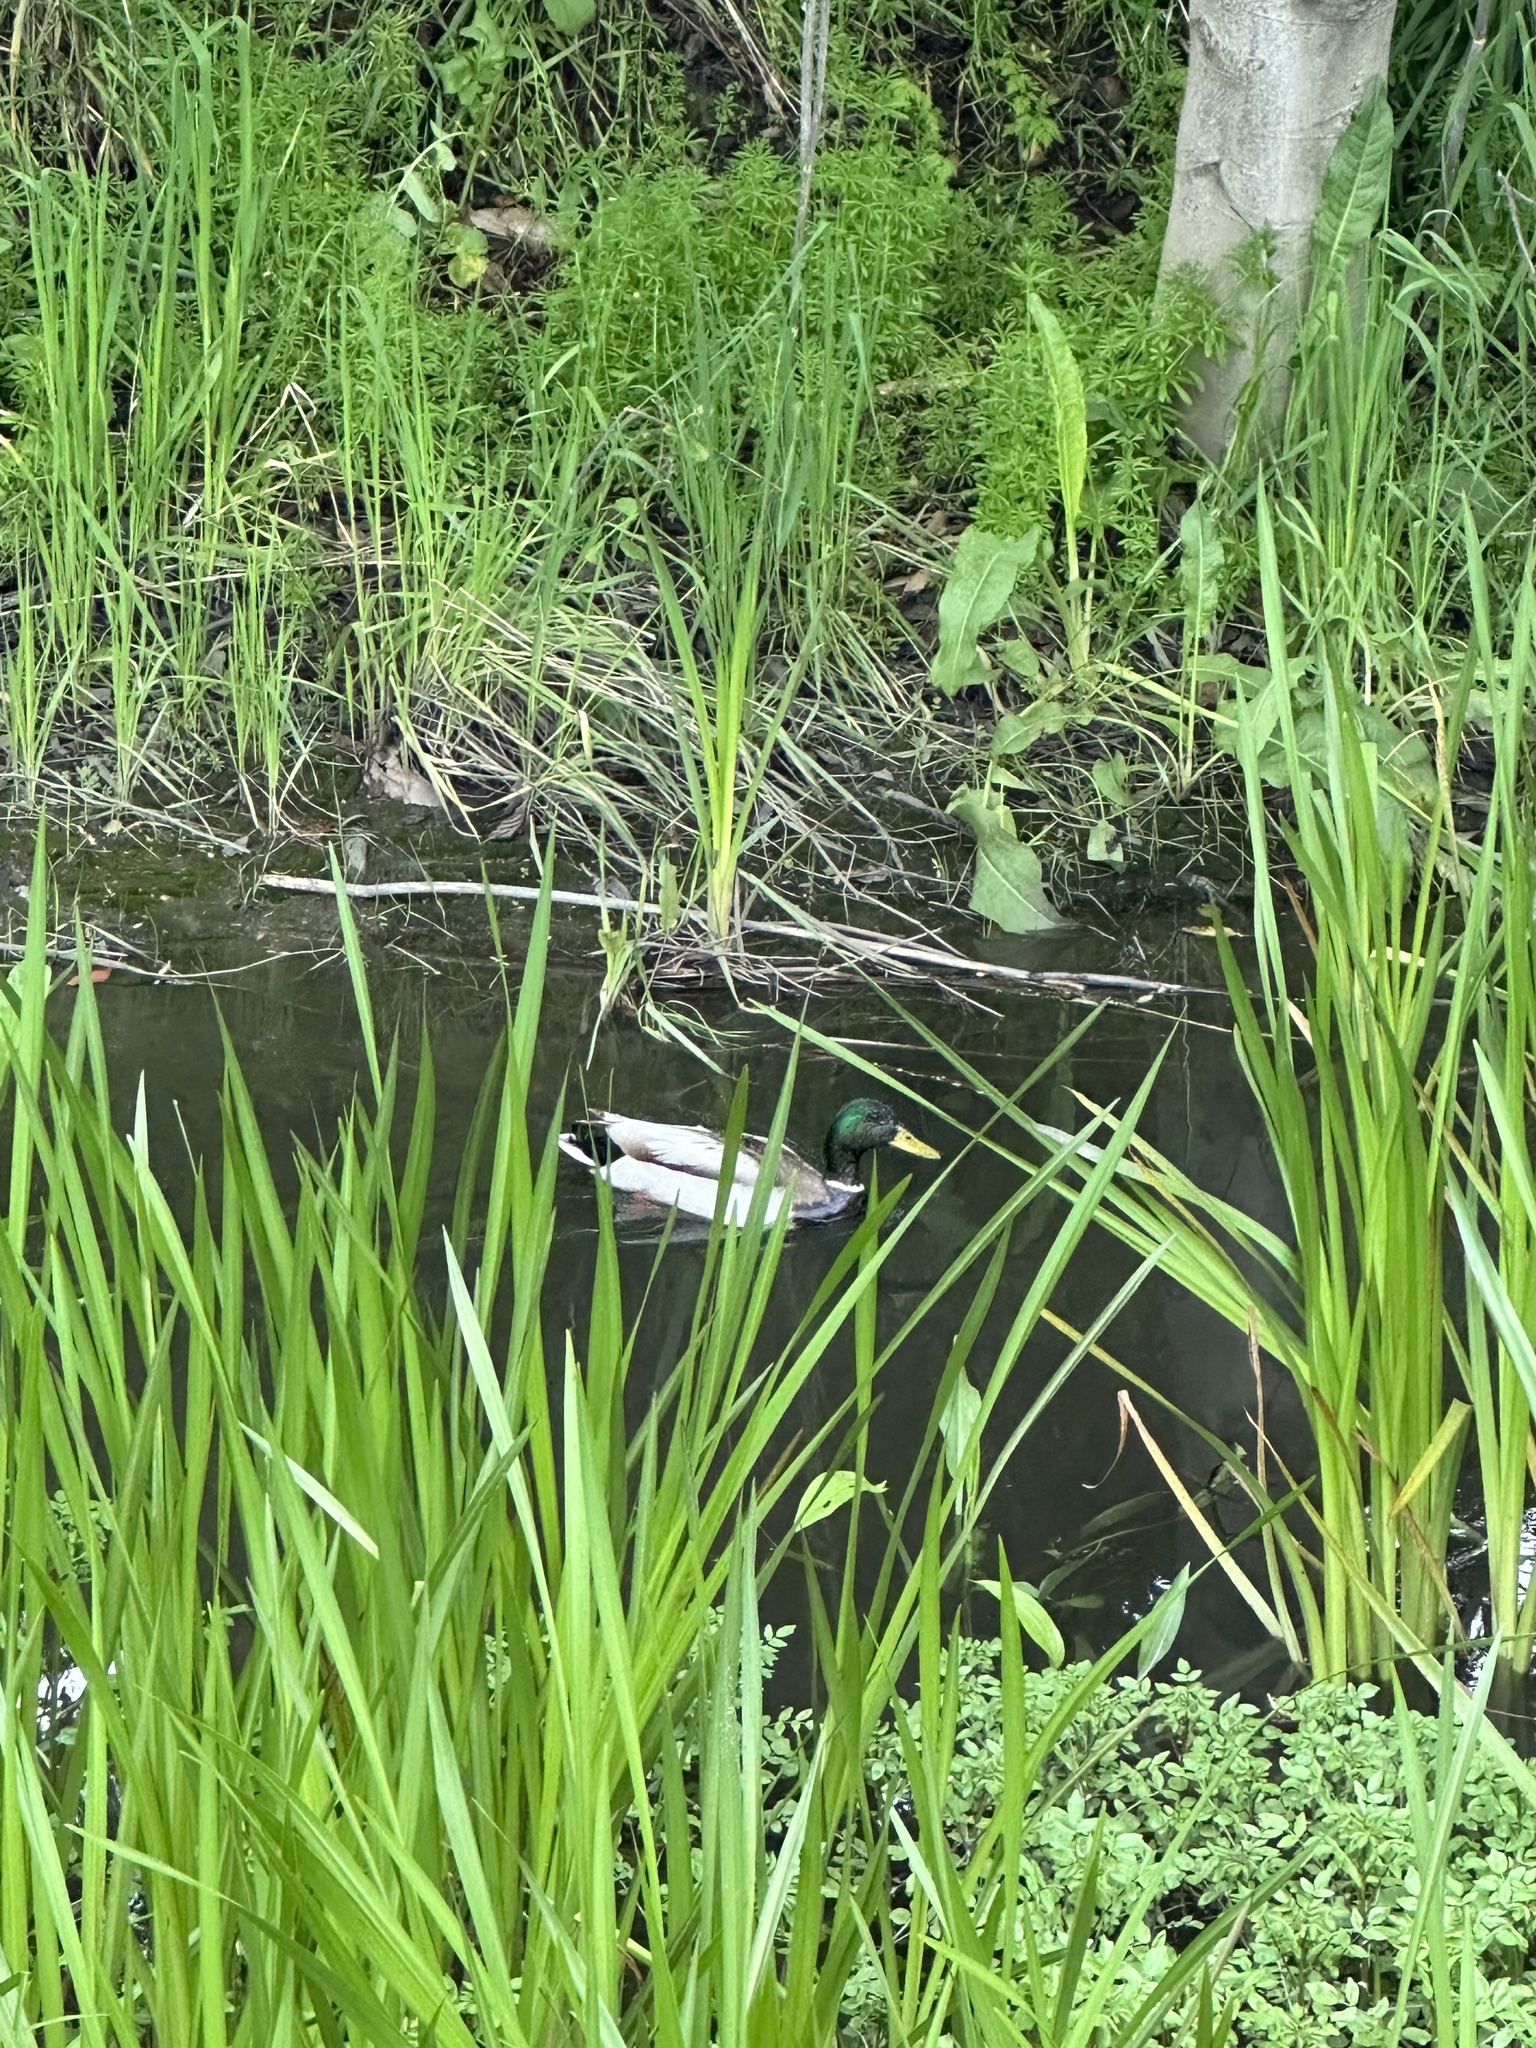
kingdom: Animalia
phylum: Chordata
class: Aves
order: Anseriformes
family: Anatidae
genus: Anas
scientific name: Anas platyrhynchos
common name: Mallard
